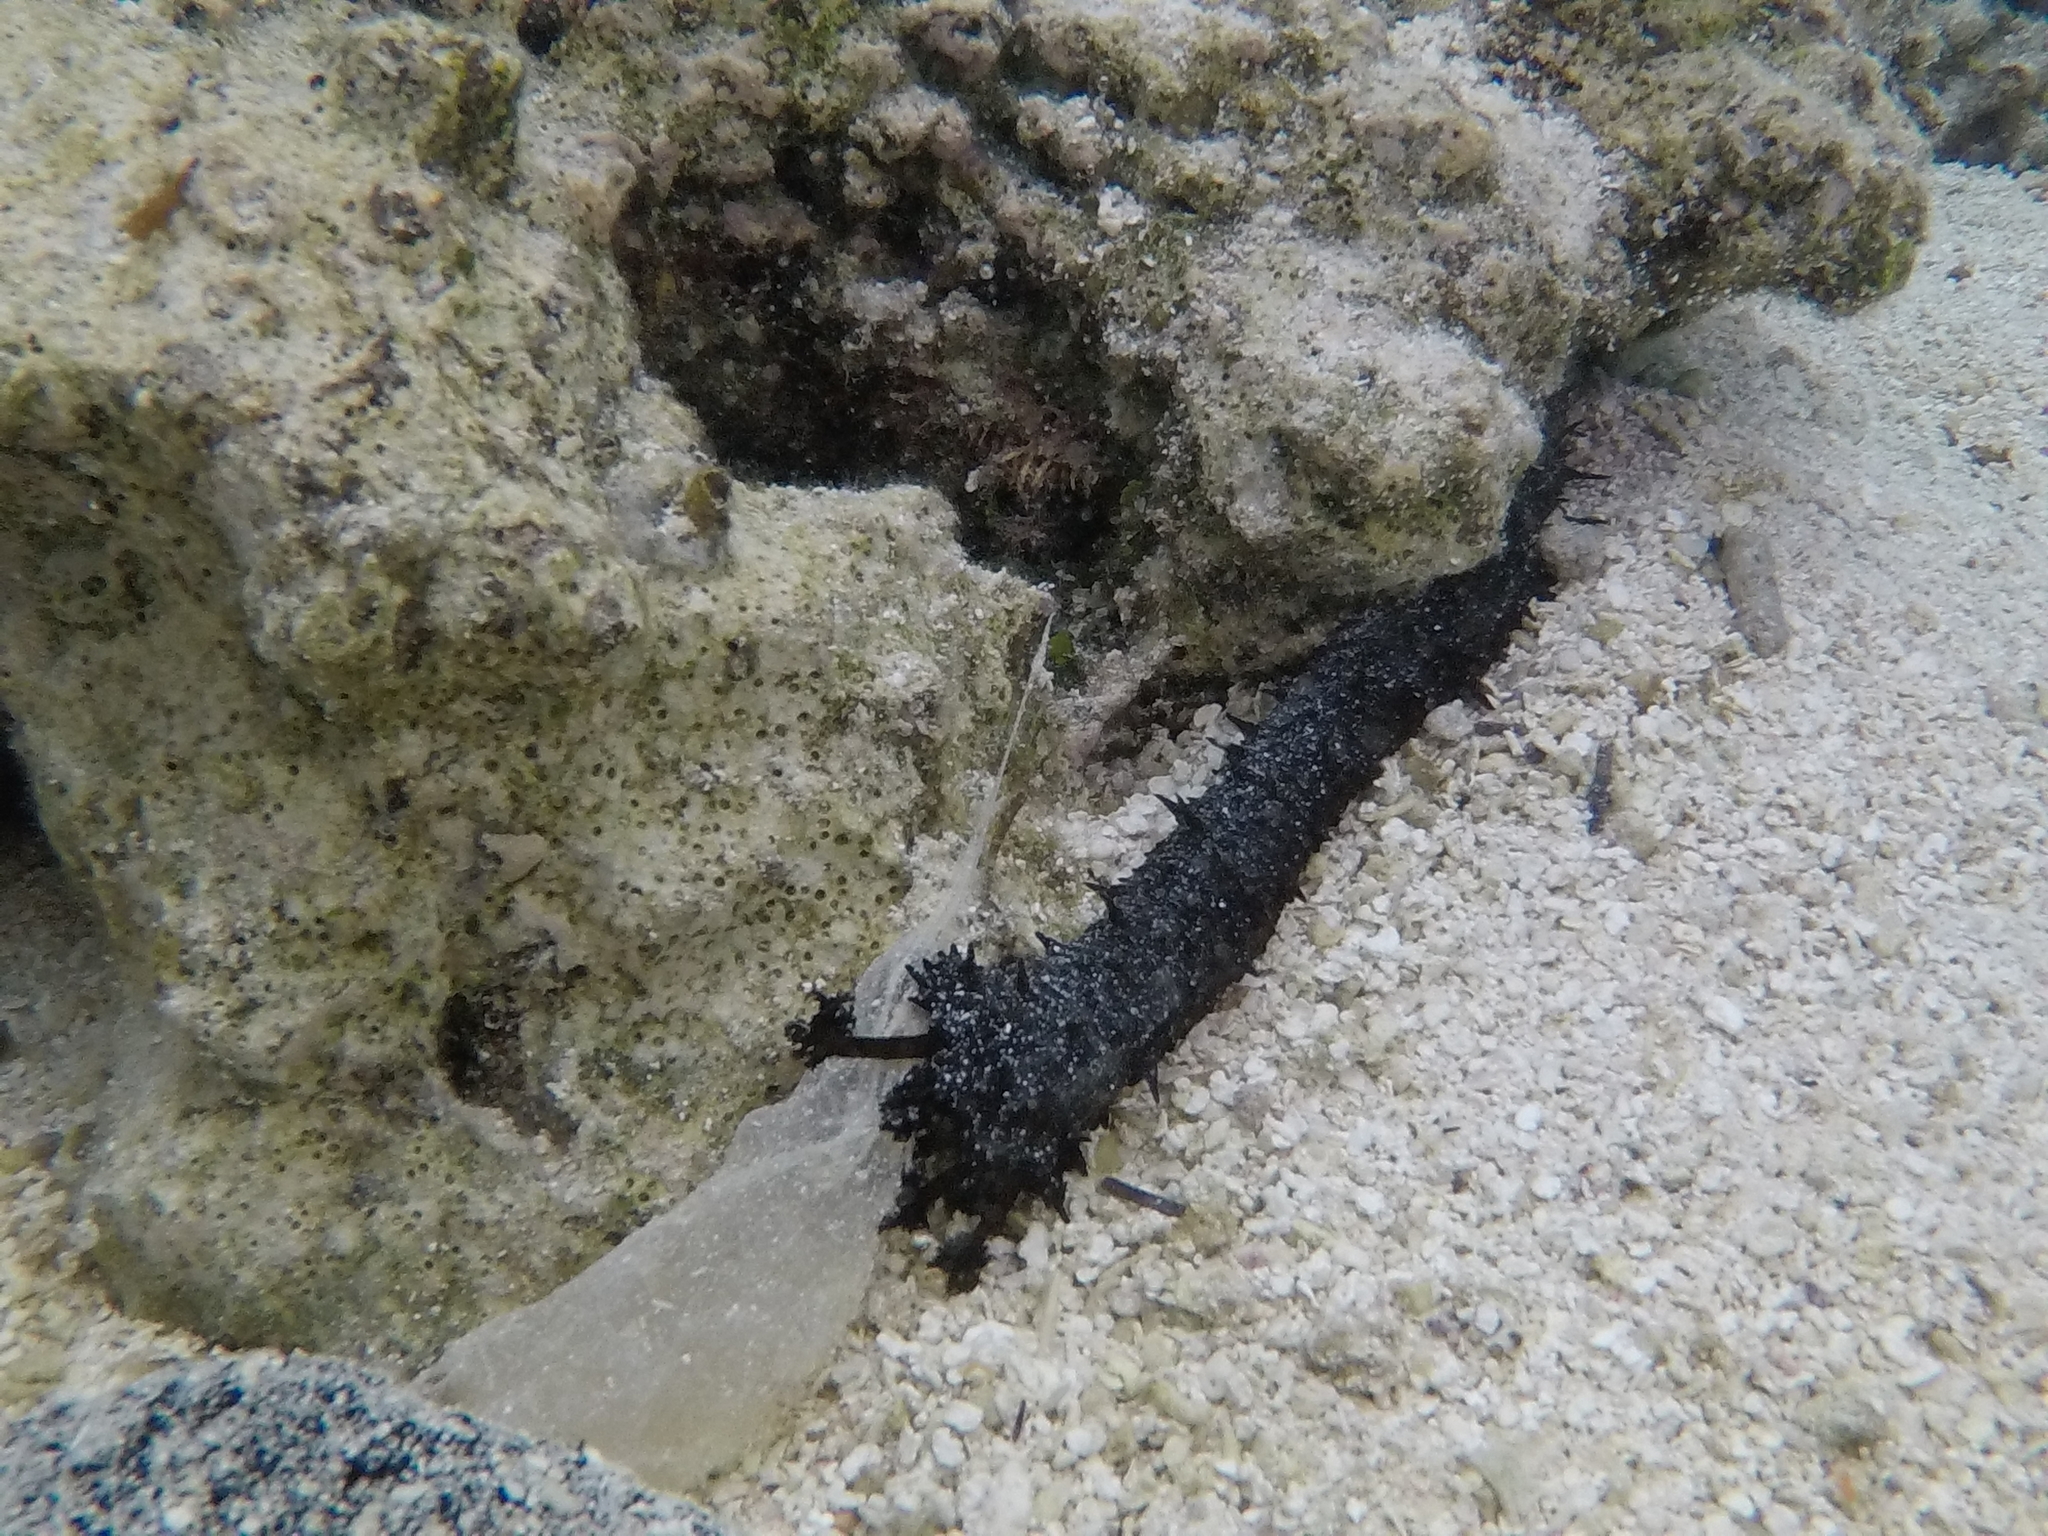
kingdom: Animalia
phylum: Echinodermata
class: Holothuroidea
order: Holothuriida
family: Holothuriidae
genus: Holothuria
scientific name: Holothuria leucospilota
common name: White thread fish
